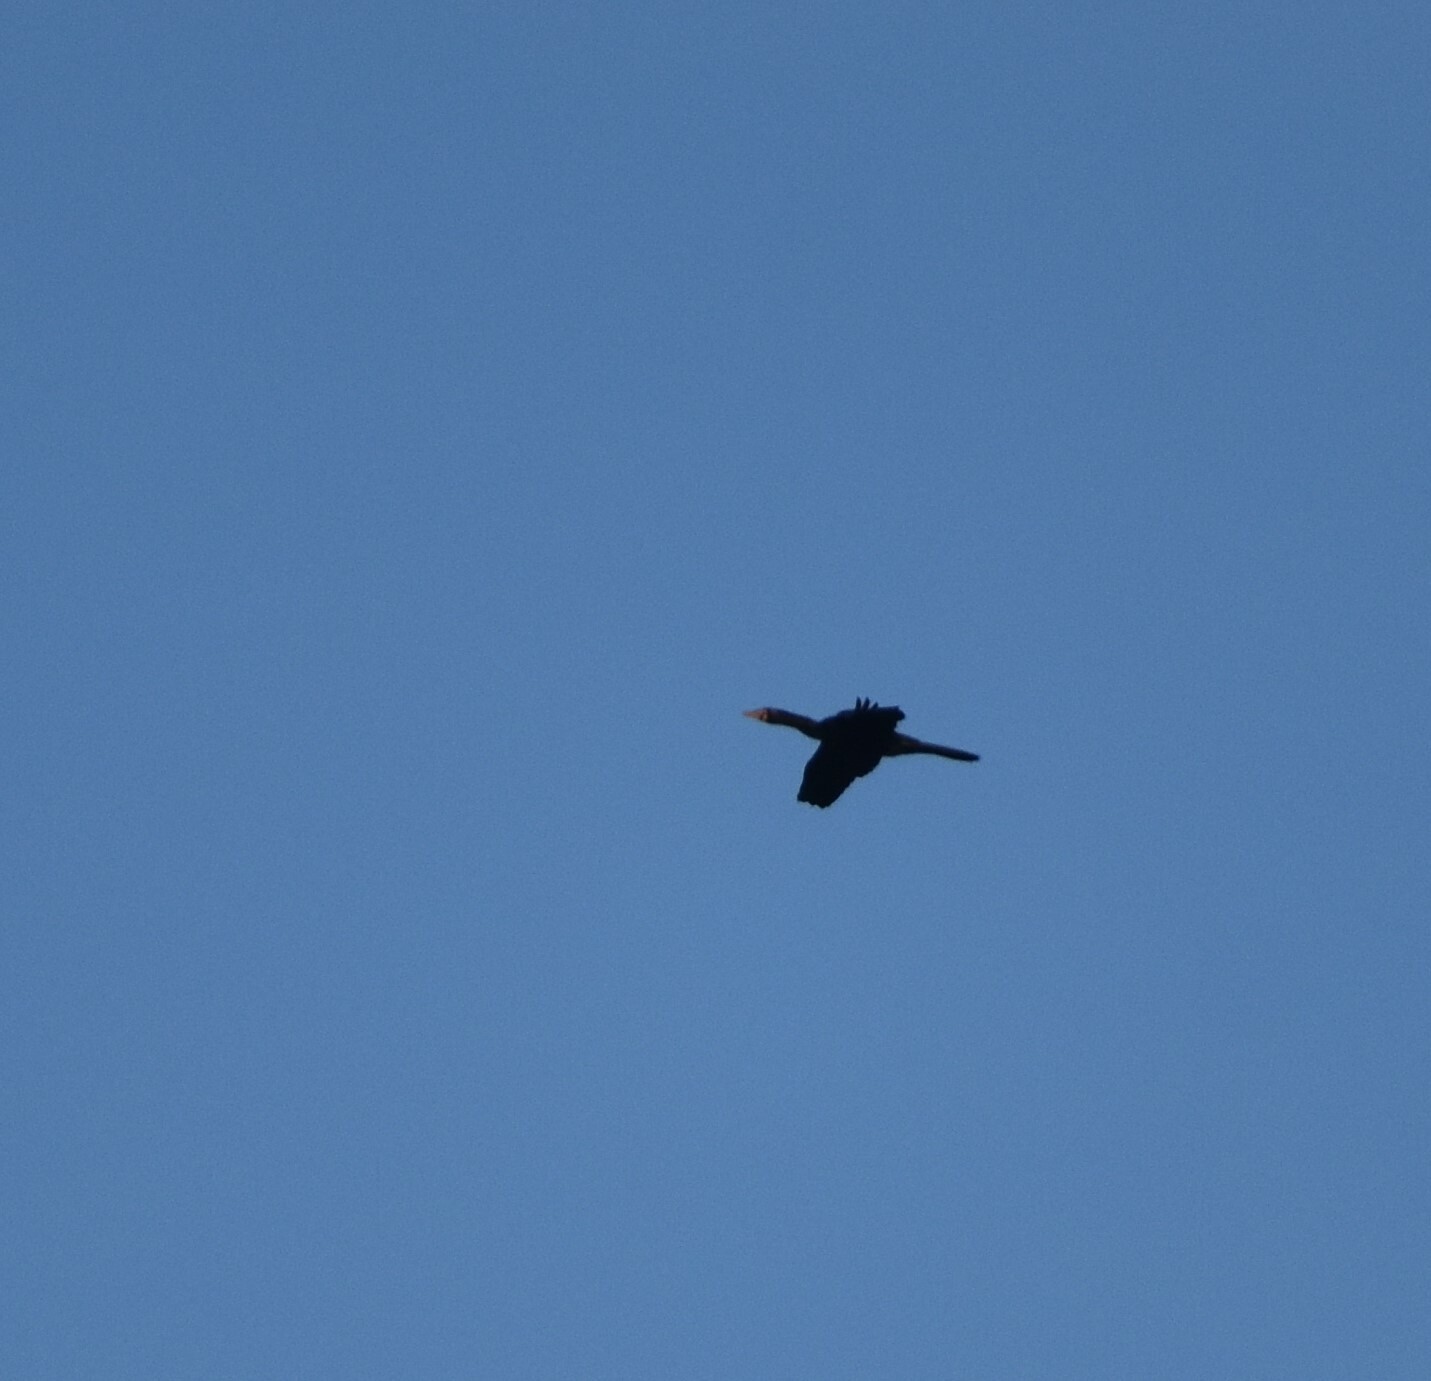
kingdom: Animalia
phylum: Chordata
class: Aves
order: Suliformes
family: Phalacrocoracidae
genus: Microcarbo
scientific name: Microcarbo africanus
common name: Long-tailed cormorant
